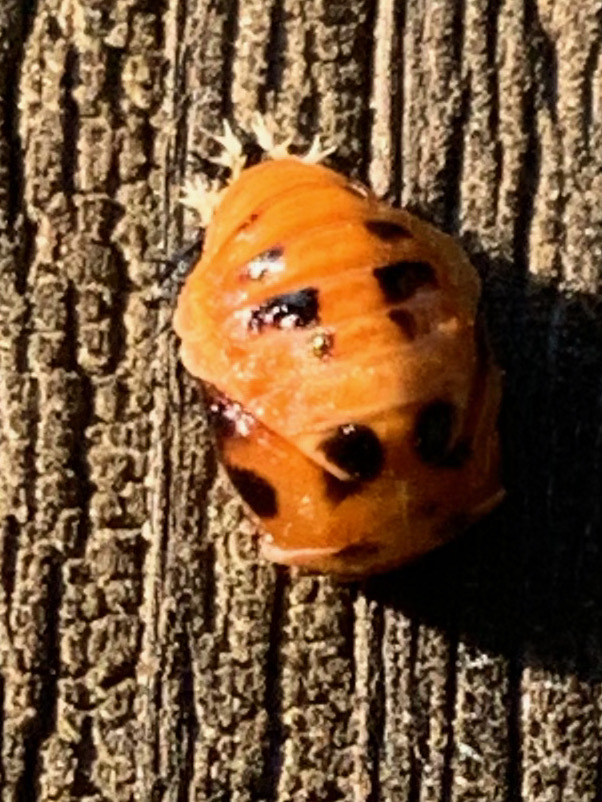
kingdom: Animalia
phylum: Arthropoda
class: Insecta
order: Coleoptera
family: Coccinellidae
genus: Harmonia
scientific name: Harmonia axyridis
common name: Harlequin ladybird
